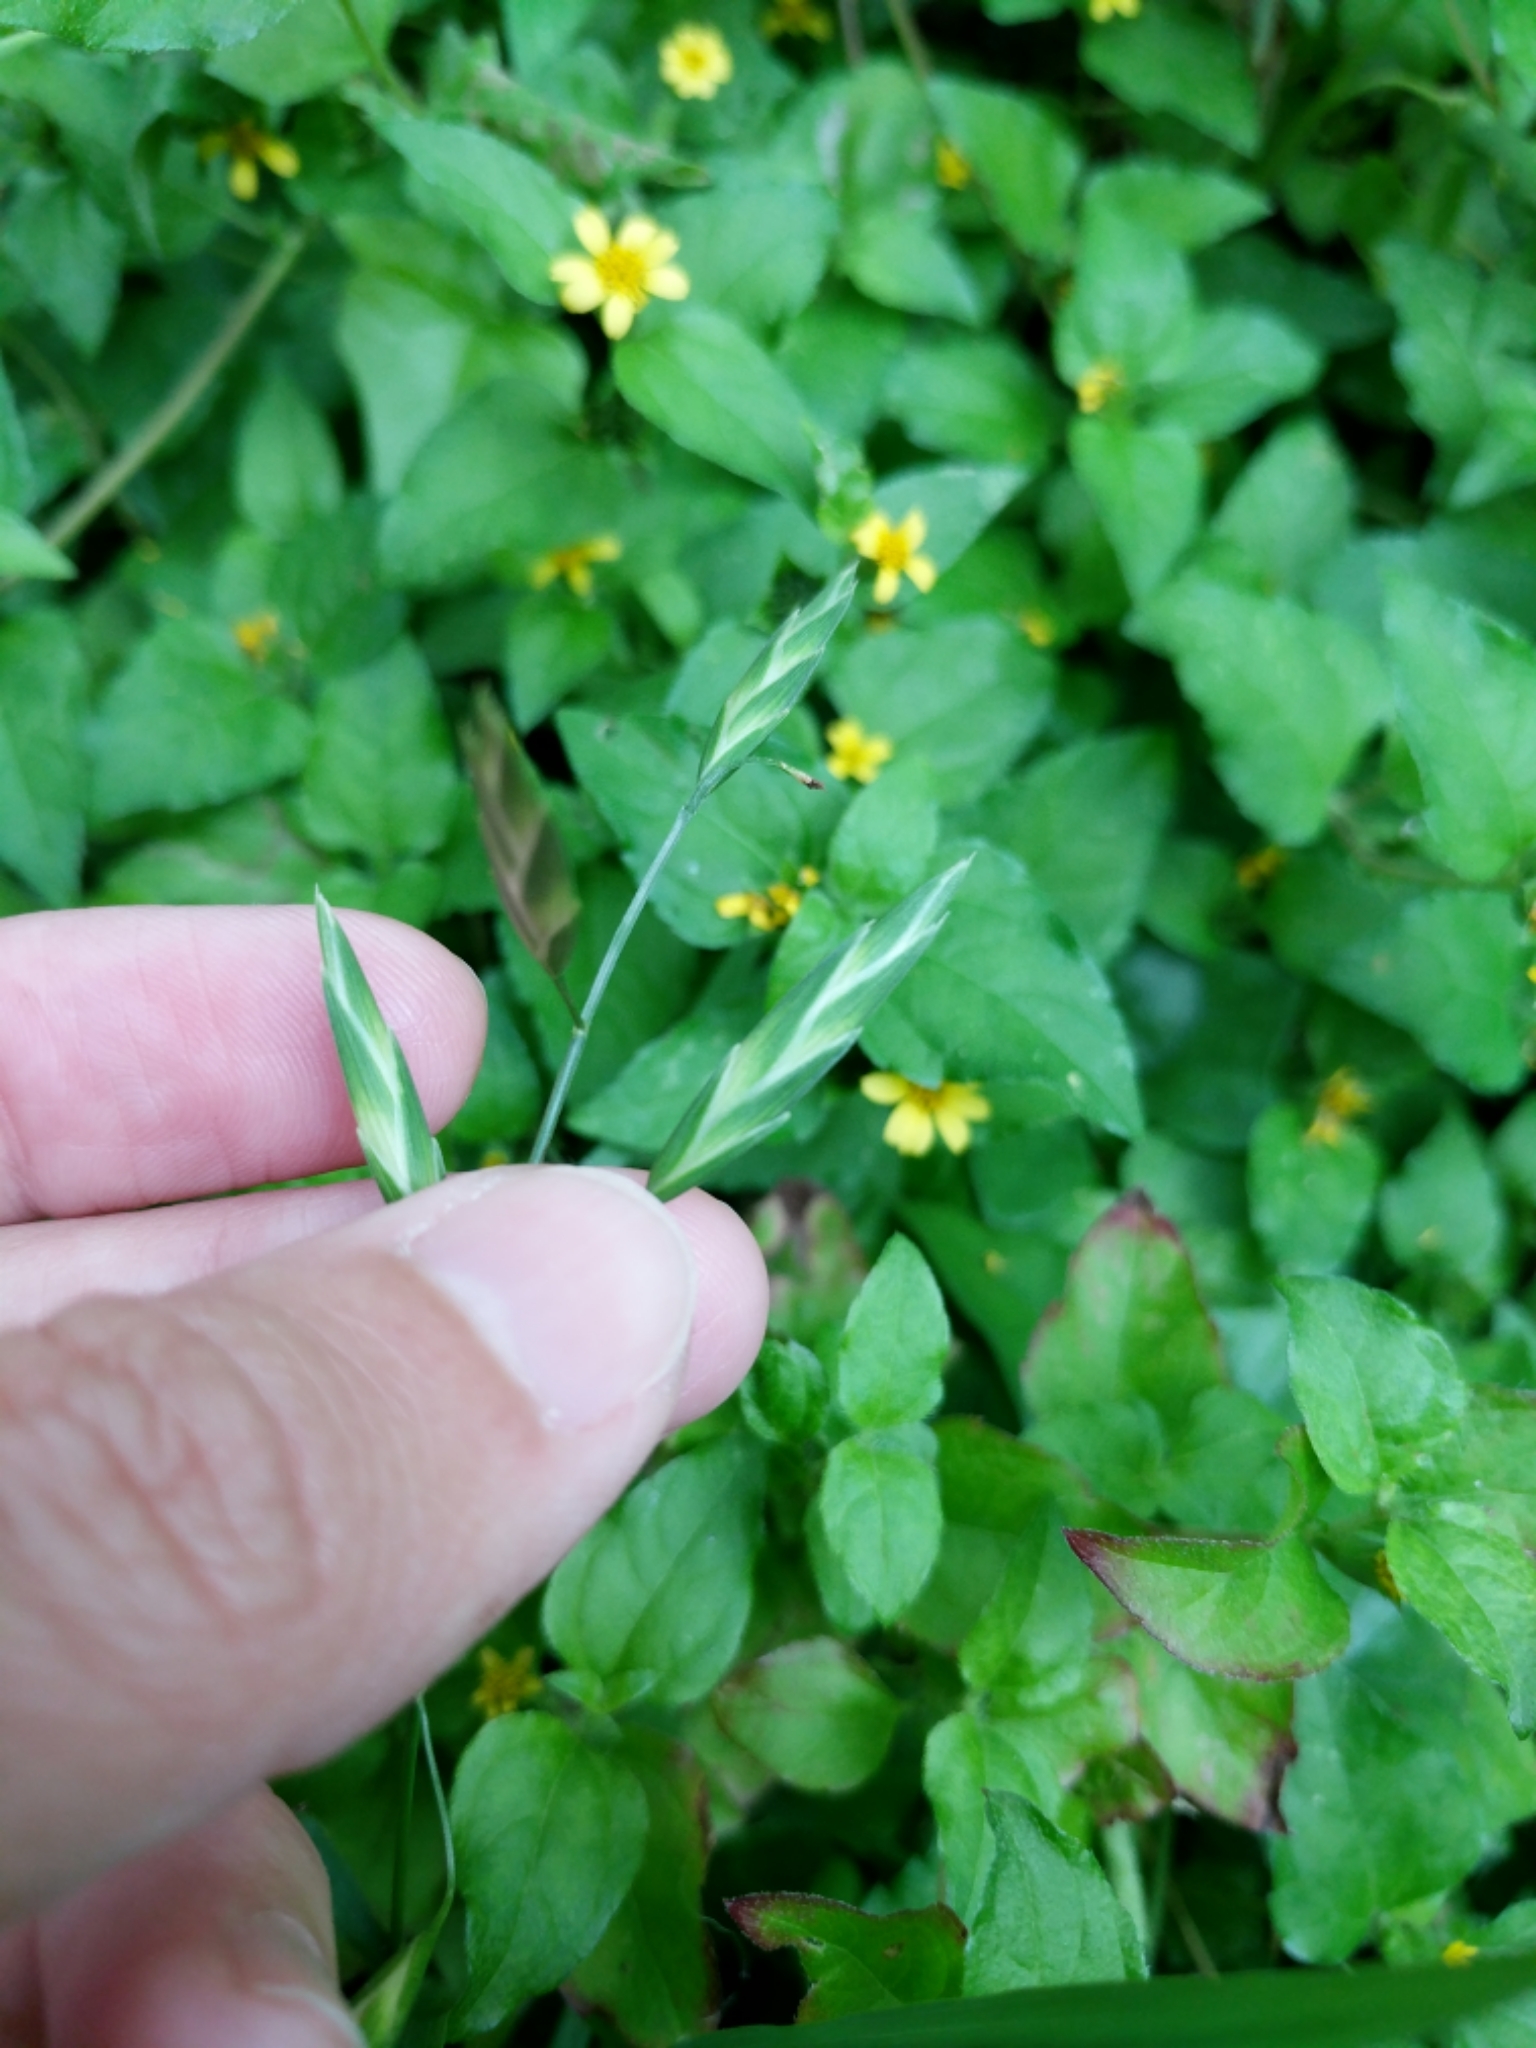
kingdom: Plantae
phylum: Tracheophyta
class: Liliopsida
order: Poales
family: Poaceae
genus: Bromus
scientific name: Bromus catharticus
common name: Rescuegrass
